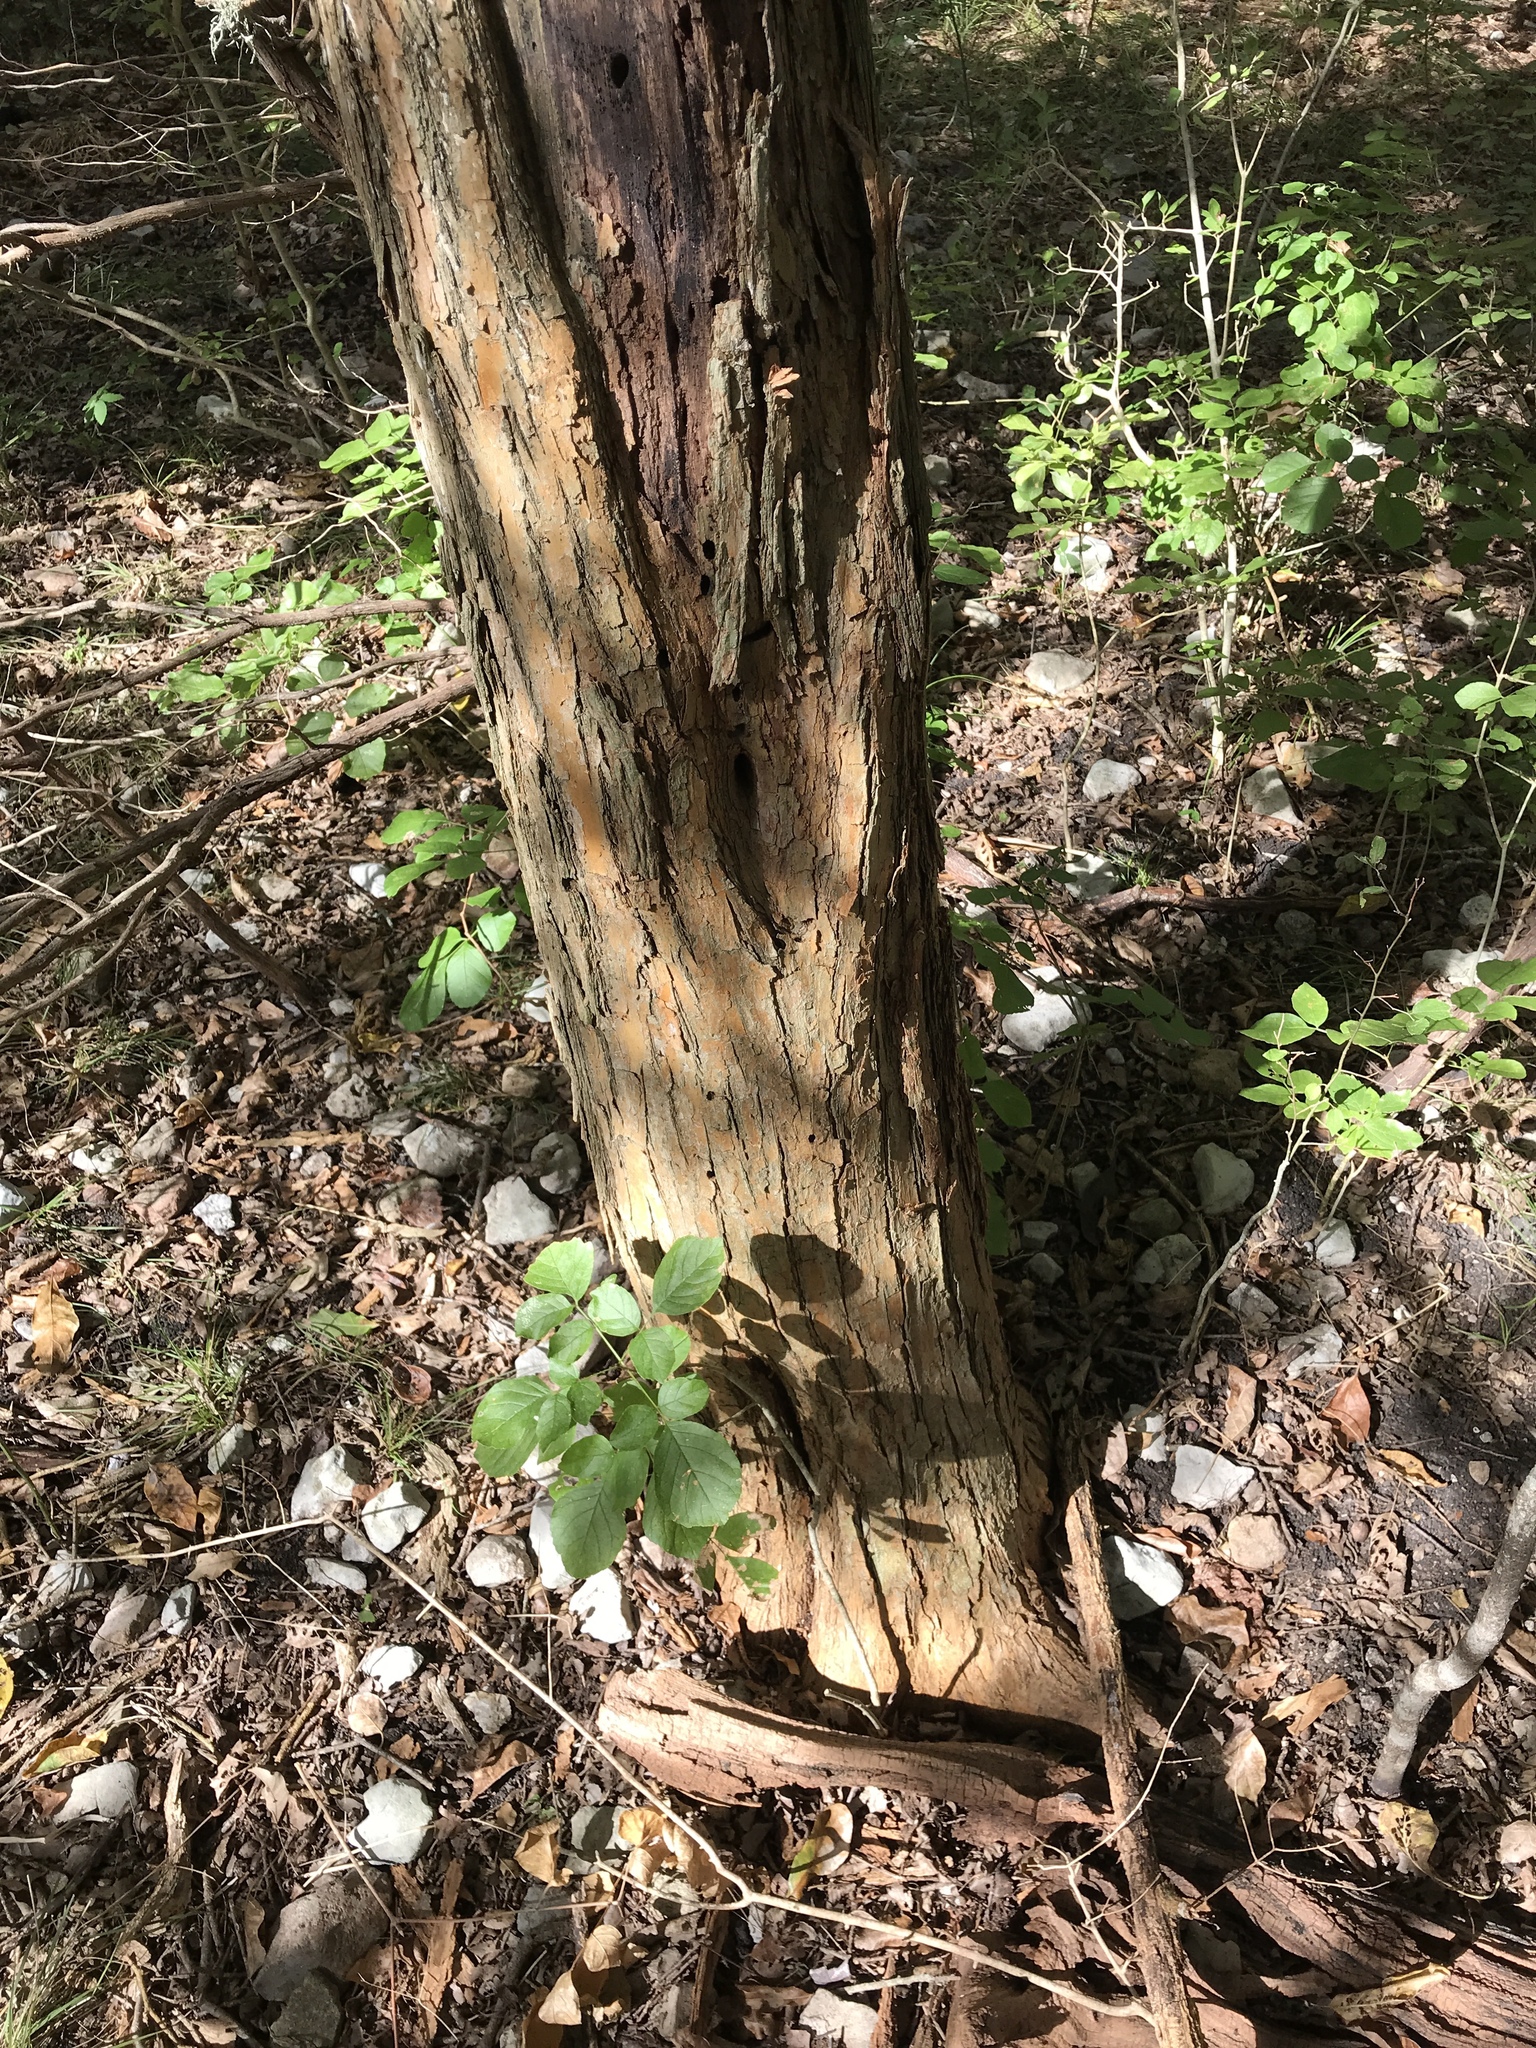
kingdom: Plantae
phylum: Tracheophyta
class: Magnoliopsida
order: Rosales
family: Moraceae
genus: Maclura
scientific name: Maclura pomifera
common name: Osage-orange
